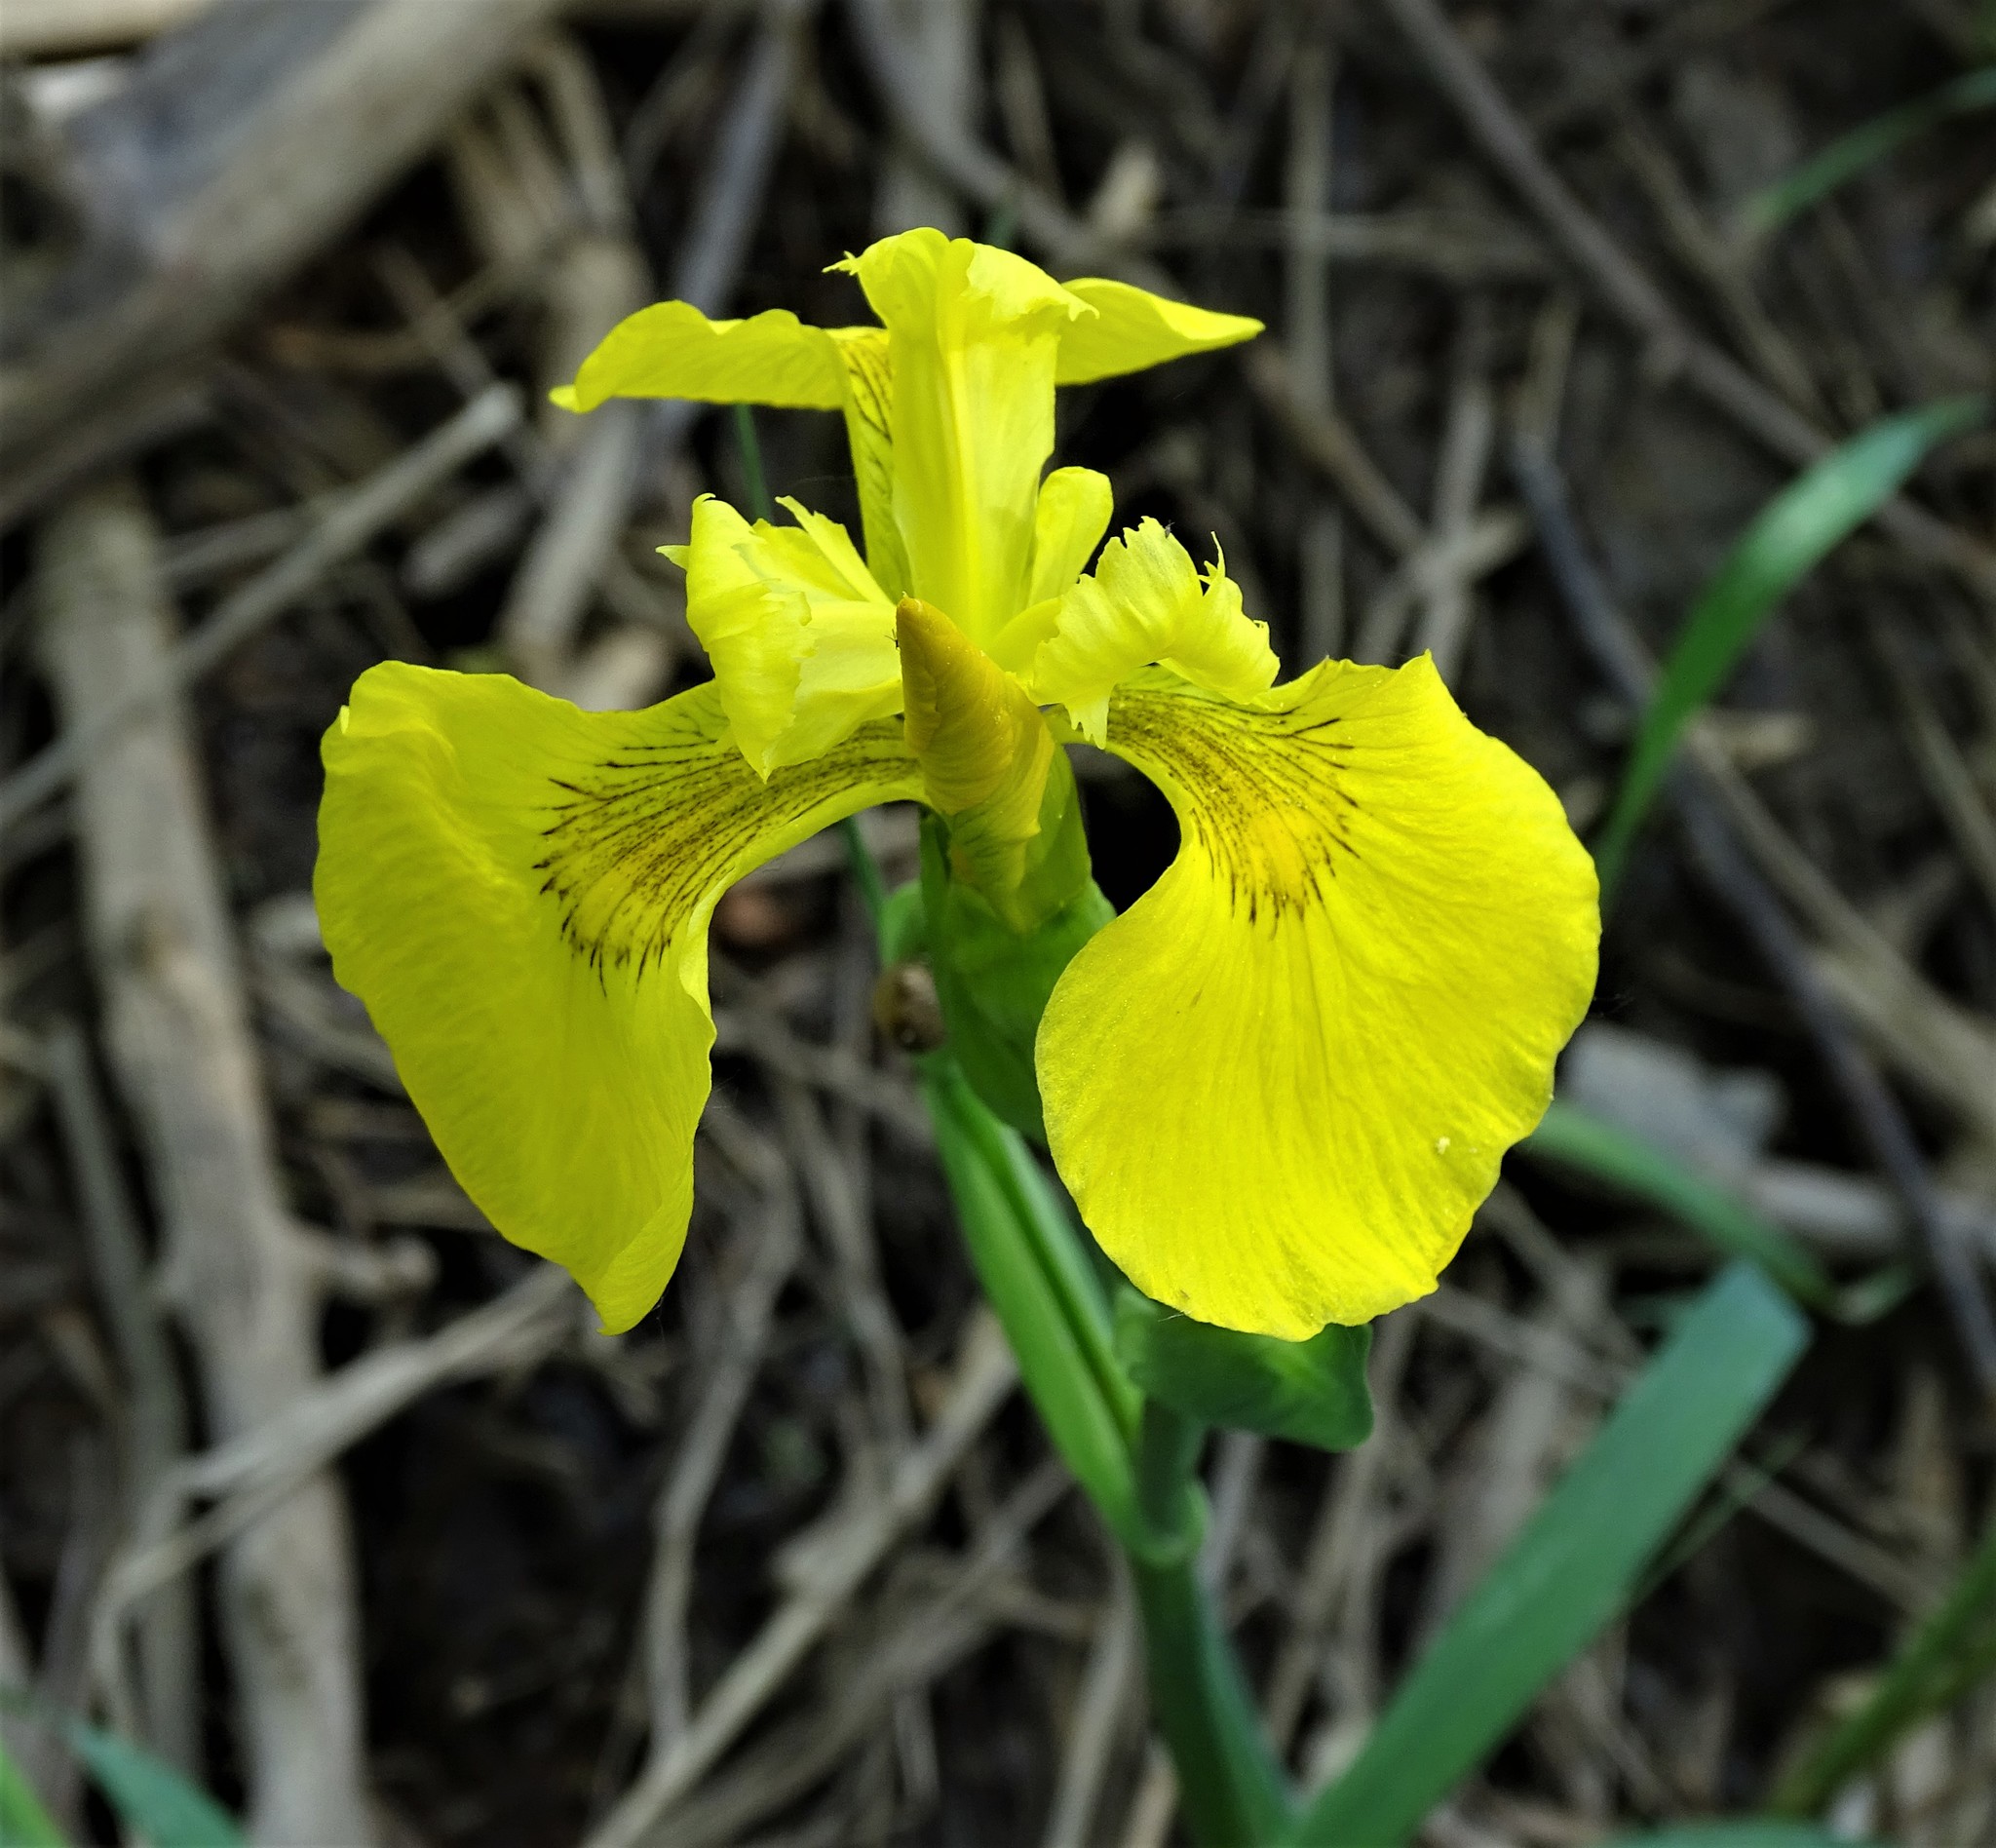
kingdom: Plantae
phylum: Tracheophyta
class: Liliopsida
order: Asparagales
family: Iridaceae
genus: Iris
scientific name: Iris pseudacorus
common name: Yellow flag
